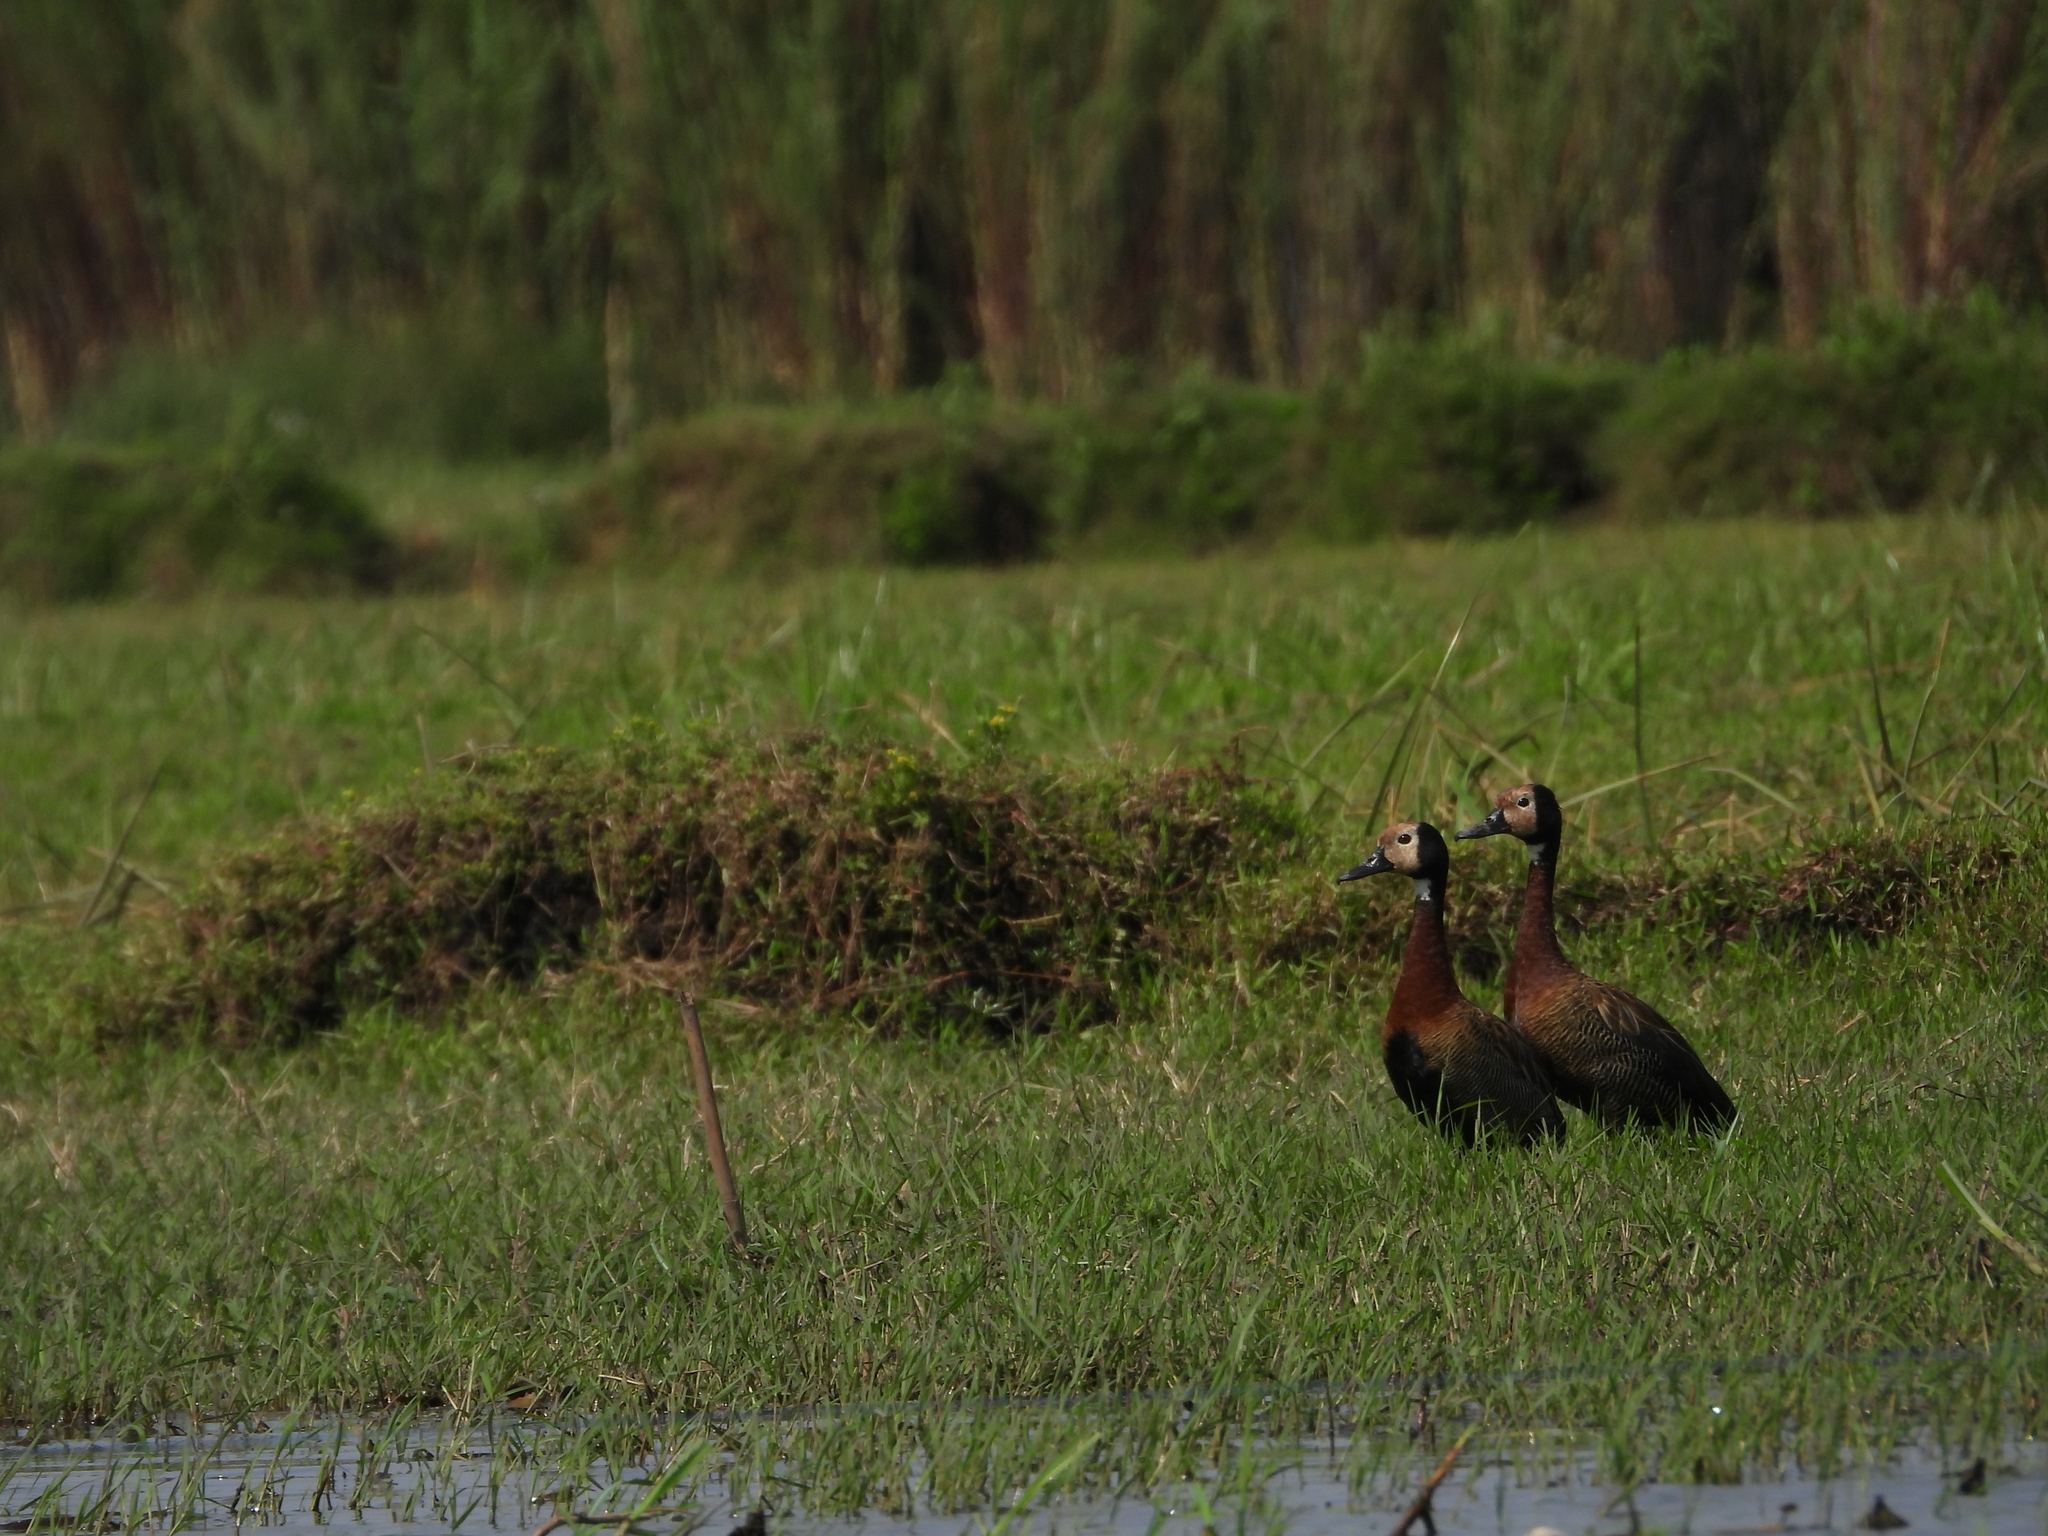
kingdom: Animalia
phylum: Chordata
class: Aves
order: Anseriformes
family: Anatidae
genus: Dendrocygna
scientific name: Dendrocygna viduata
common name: White-faced whistling duck
